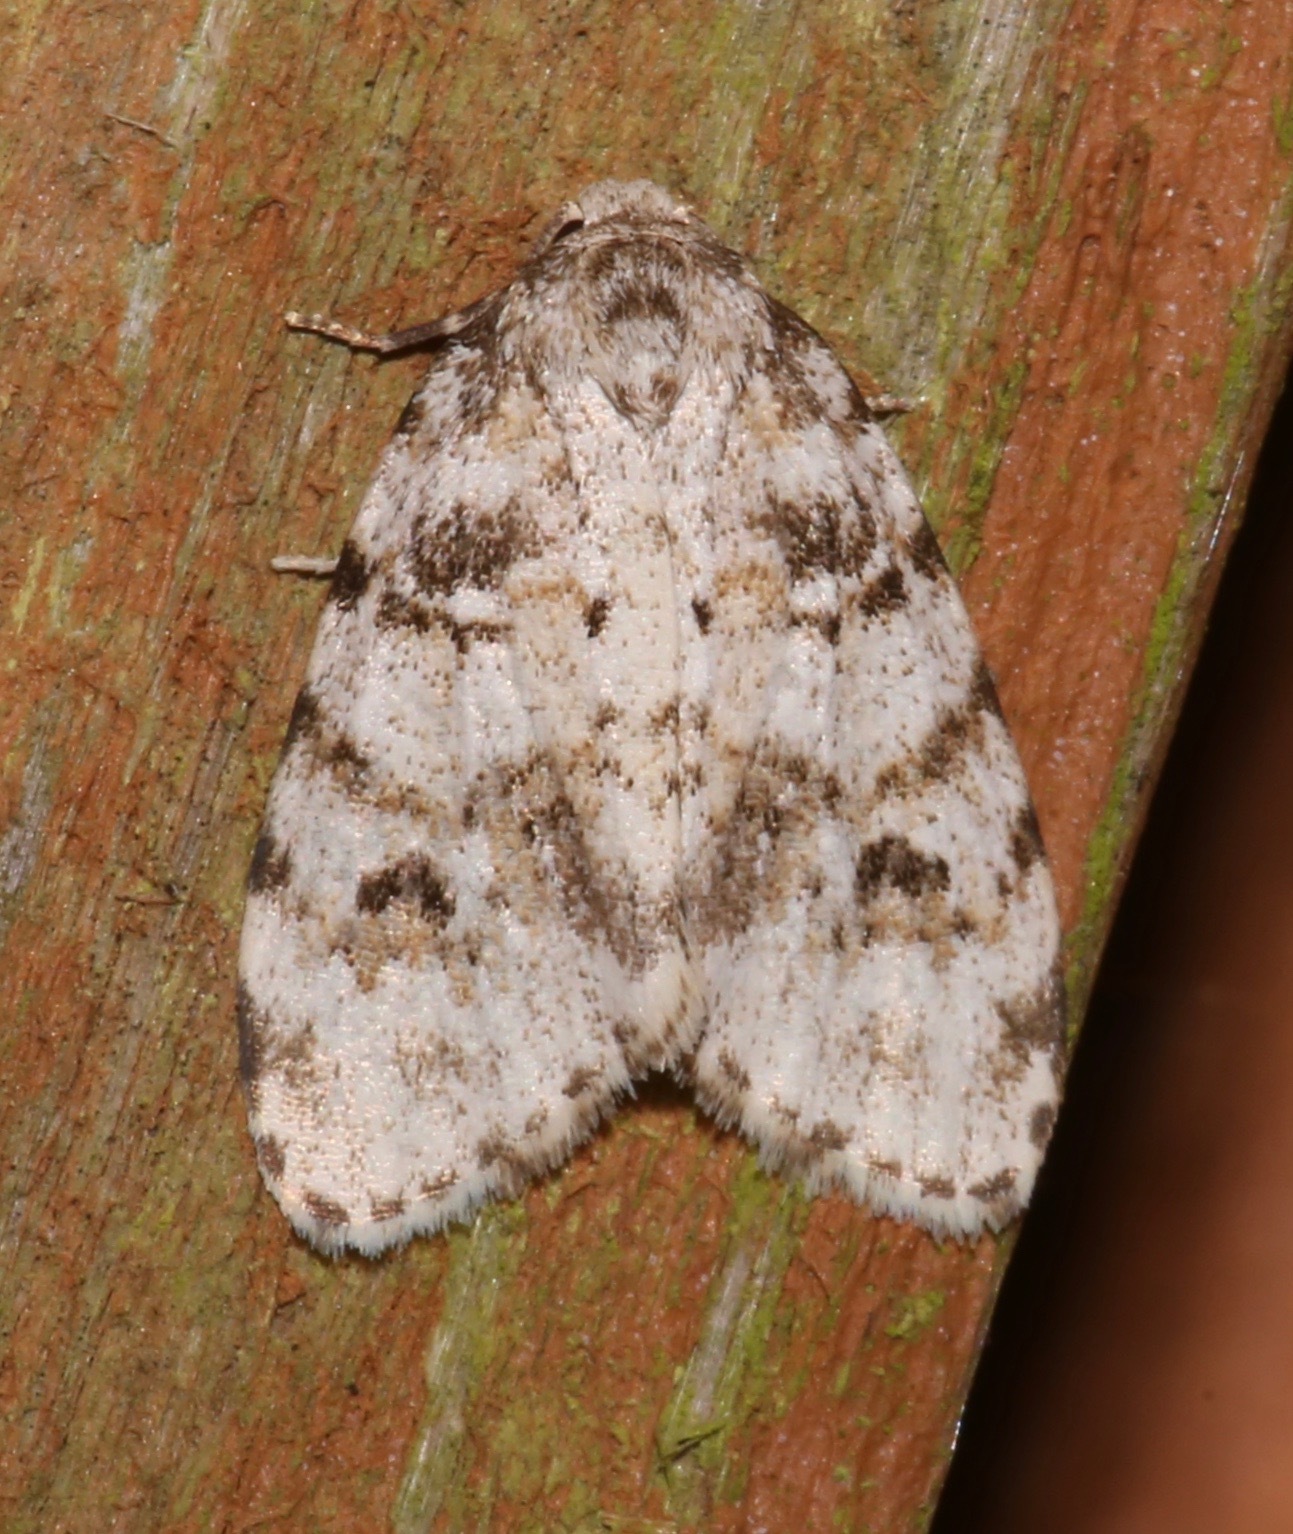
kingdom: Animalia
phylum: Arthropoda
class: Insecta
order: Lepidoptera
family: Erebidae
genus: Clemensia
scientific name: Clemensia ochreata
